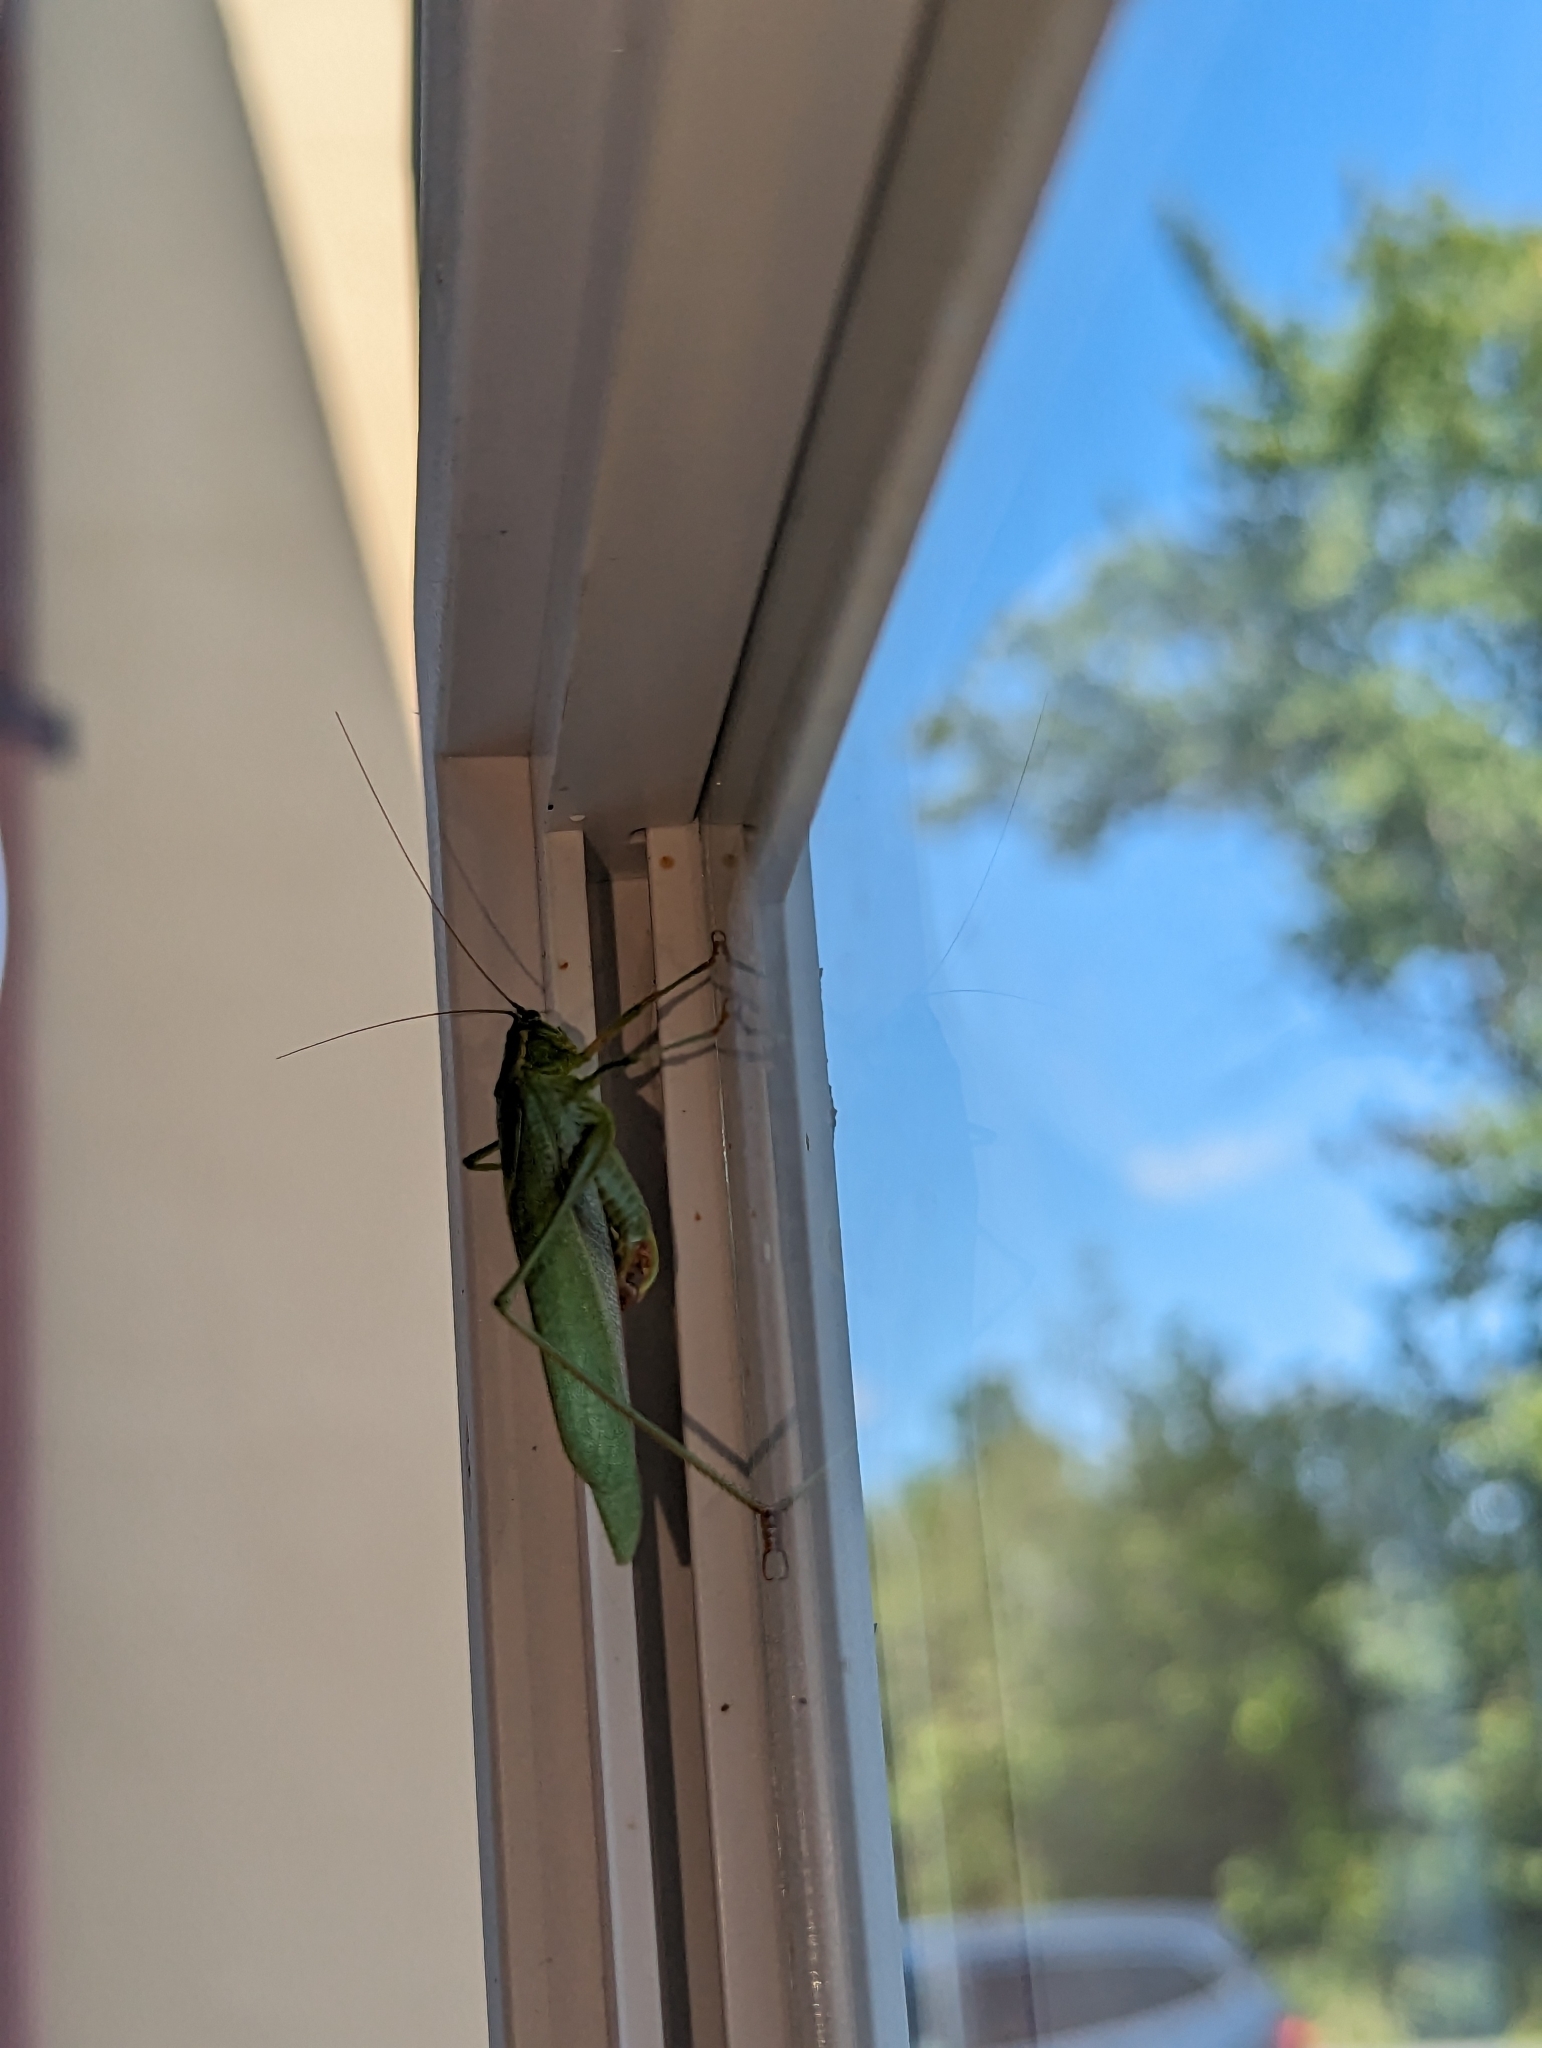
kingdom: Animalia
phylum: Arthropoda
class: Insecta
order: Orthoptera
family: Tettigoniidae
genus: Scudderia
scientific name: Scudderia furcata
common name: Fork-tailed bush katydid
